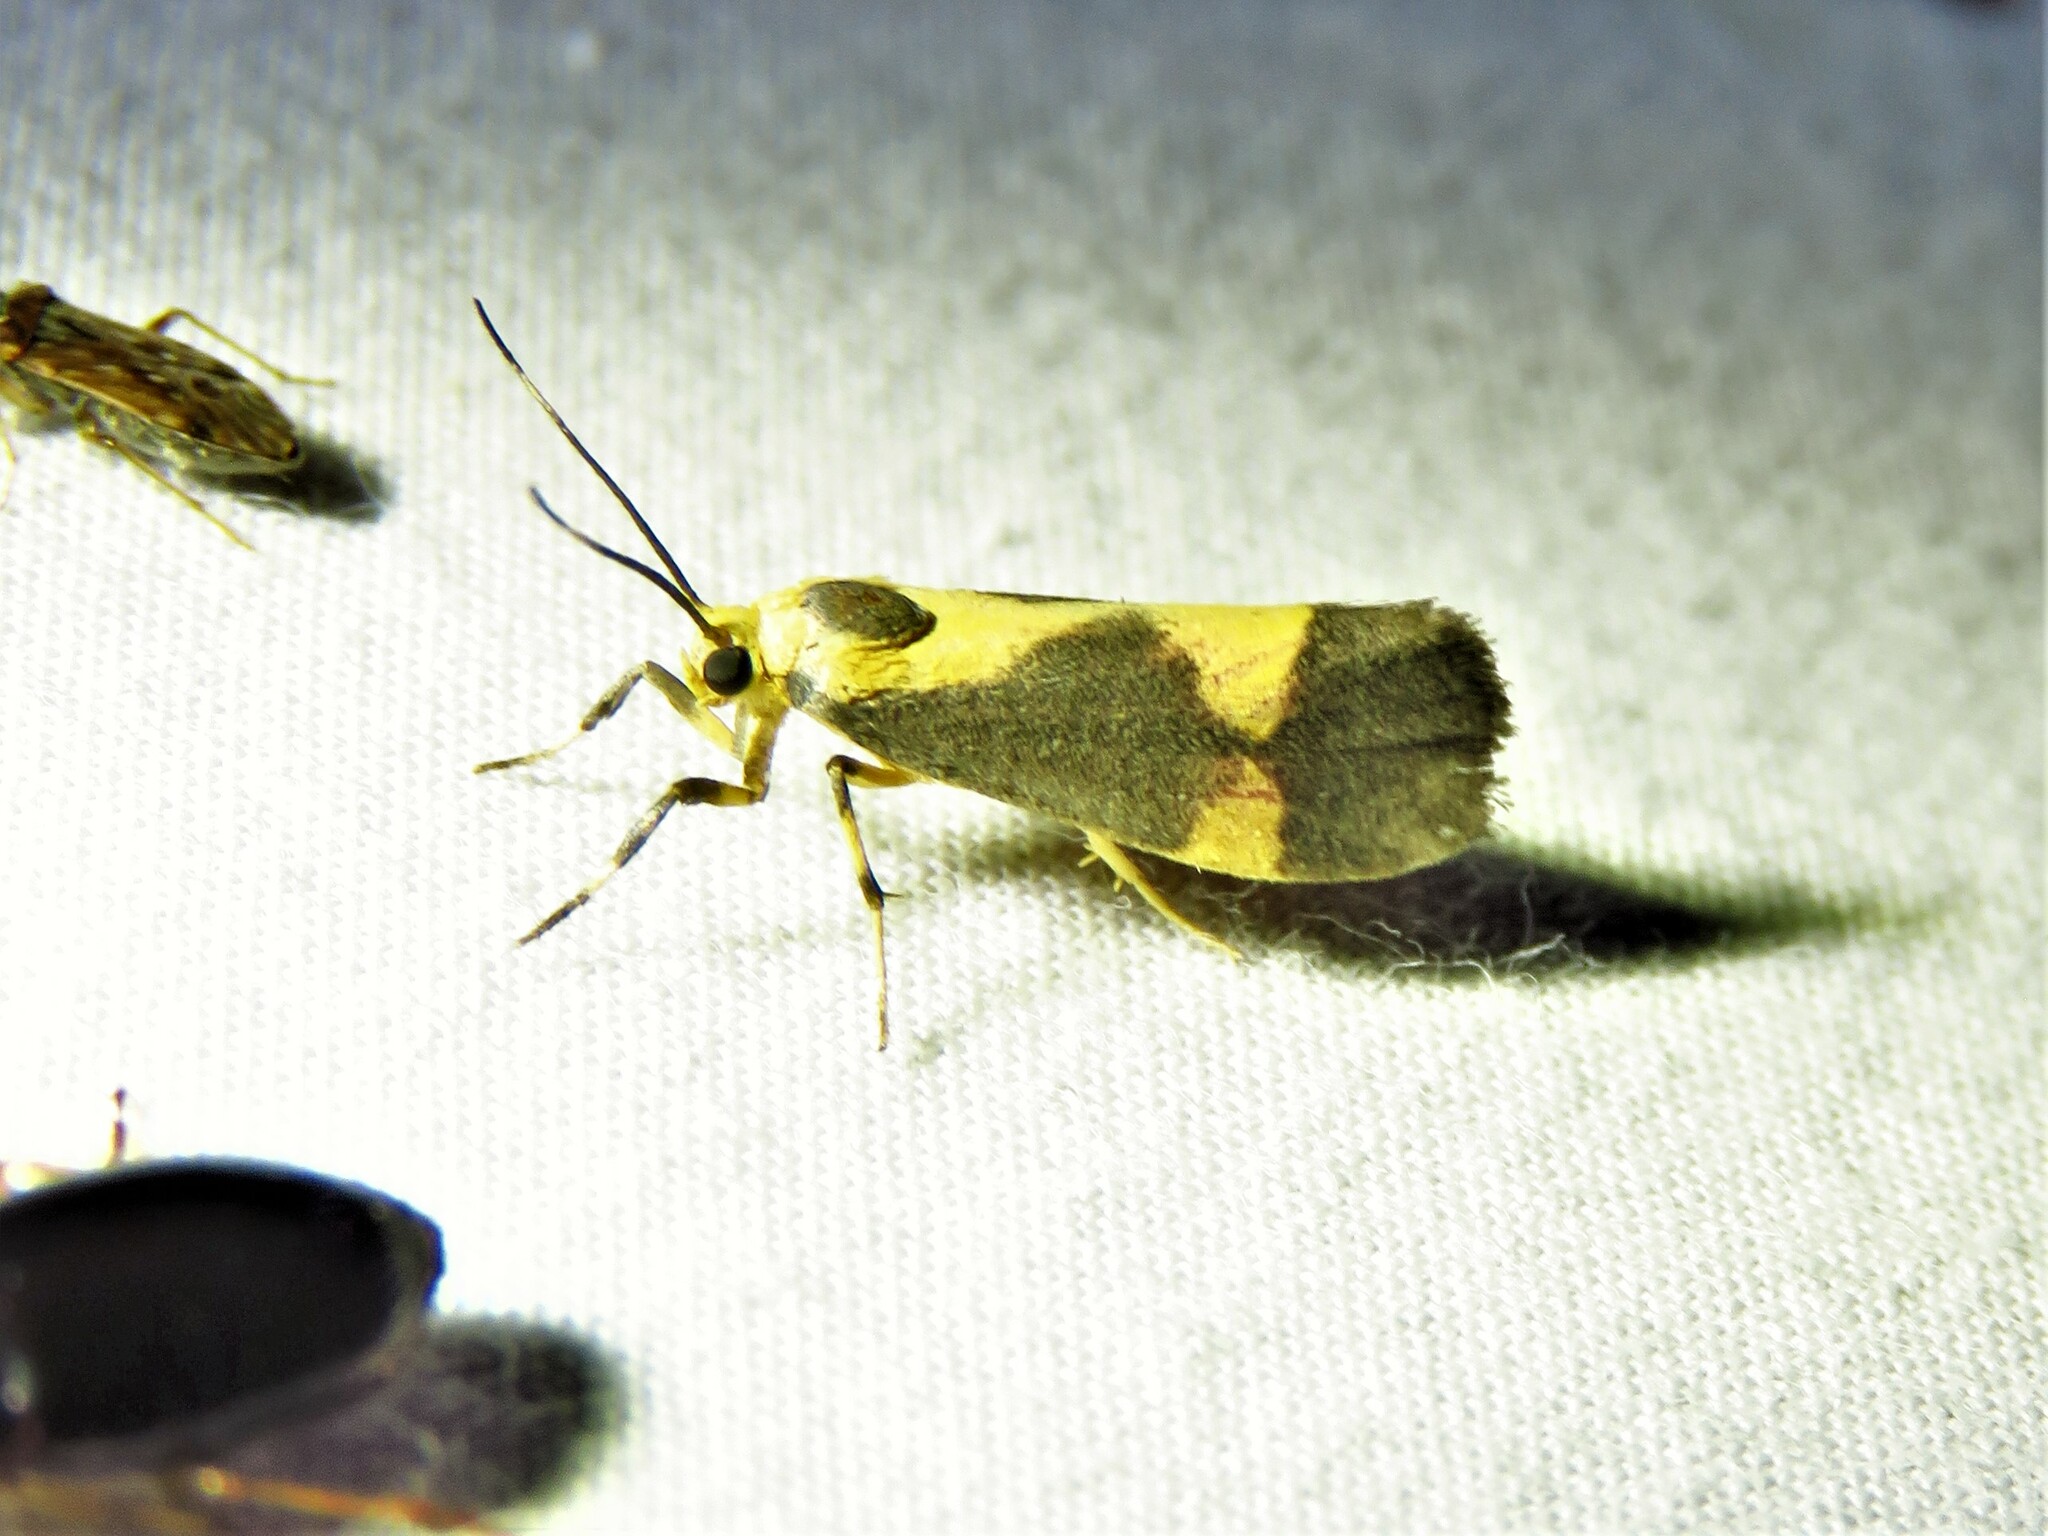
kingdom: Animalia
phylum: Arthropoda
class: Insecta
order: Lepidoptera
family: Erebidae
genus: Cisthene
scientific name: Cisthene unifascia
